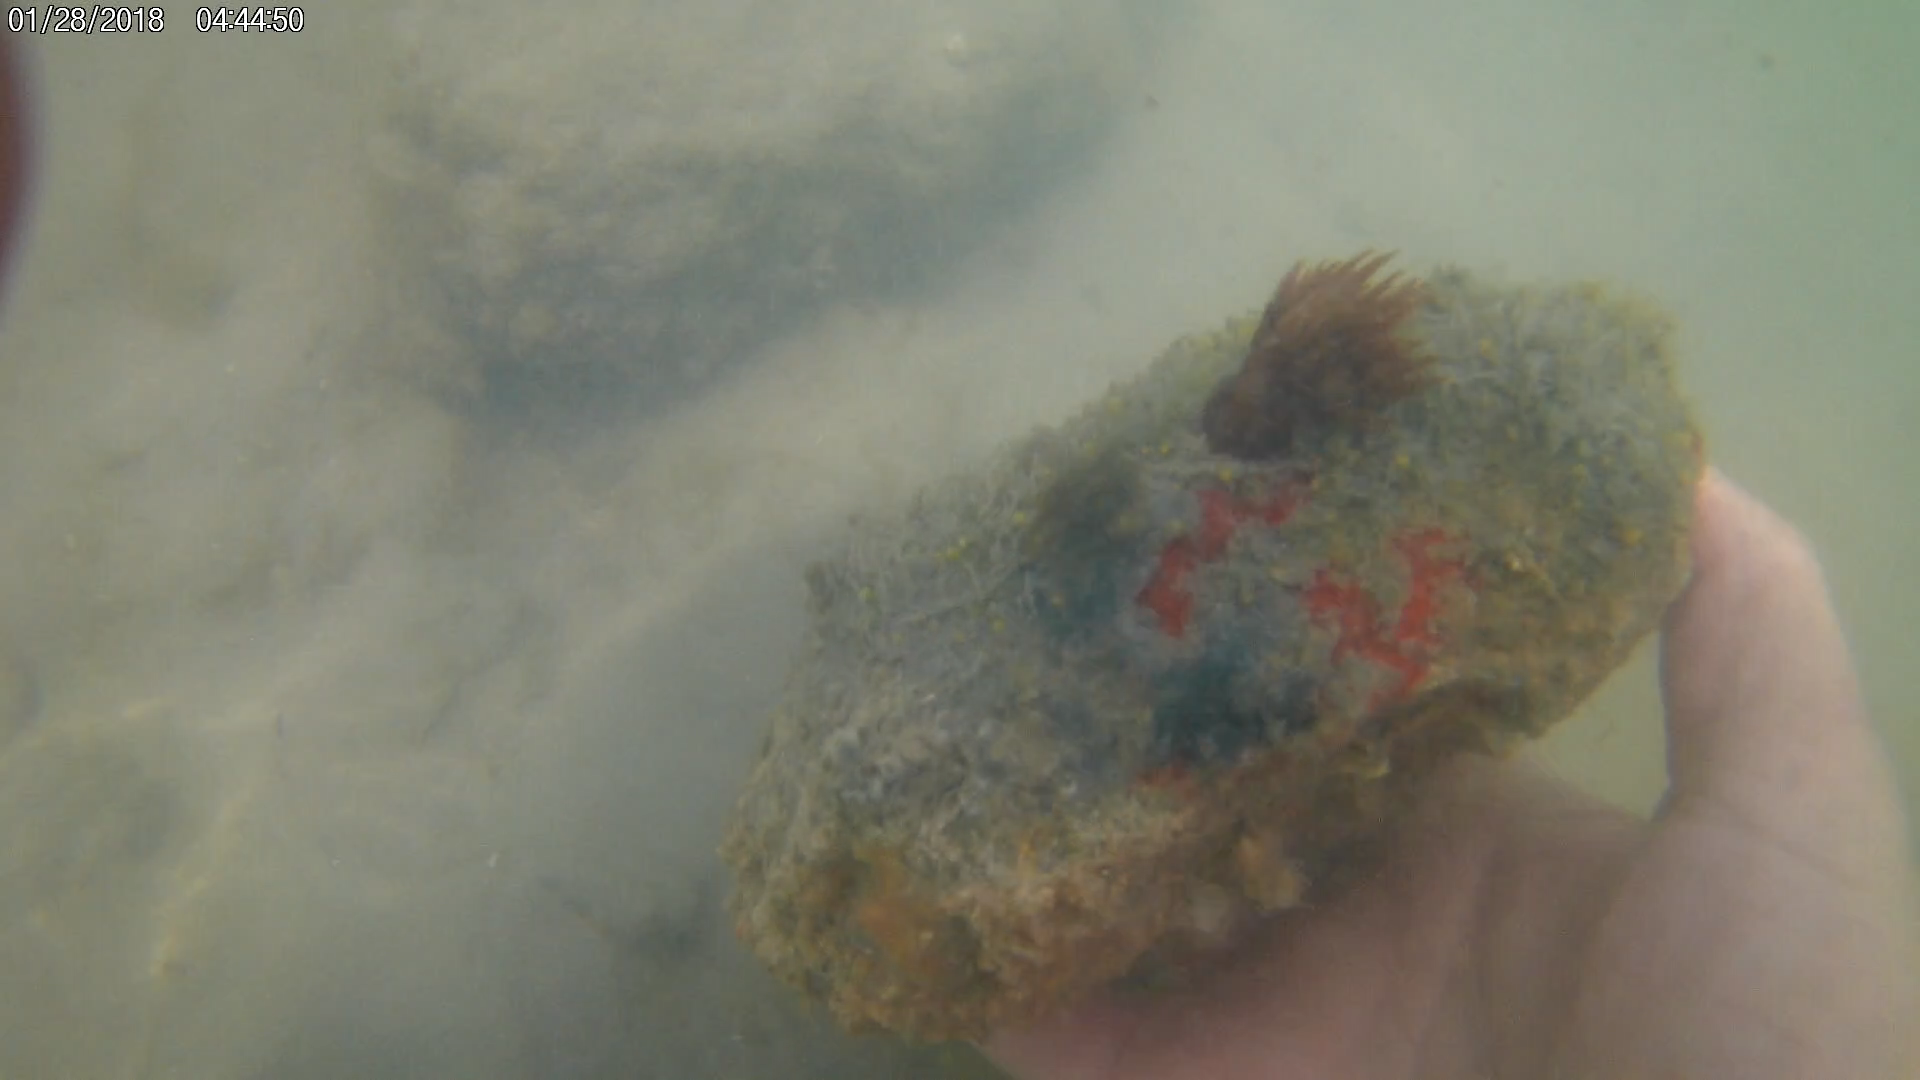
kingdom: Animalia
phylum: Cnidaria
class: Anthozoa
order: Actiniaria
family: Actiniidae
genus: Anemonia
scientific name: Anemonia sargassensis
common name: Sargassum anemone
